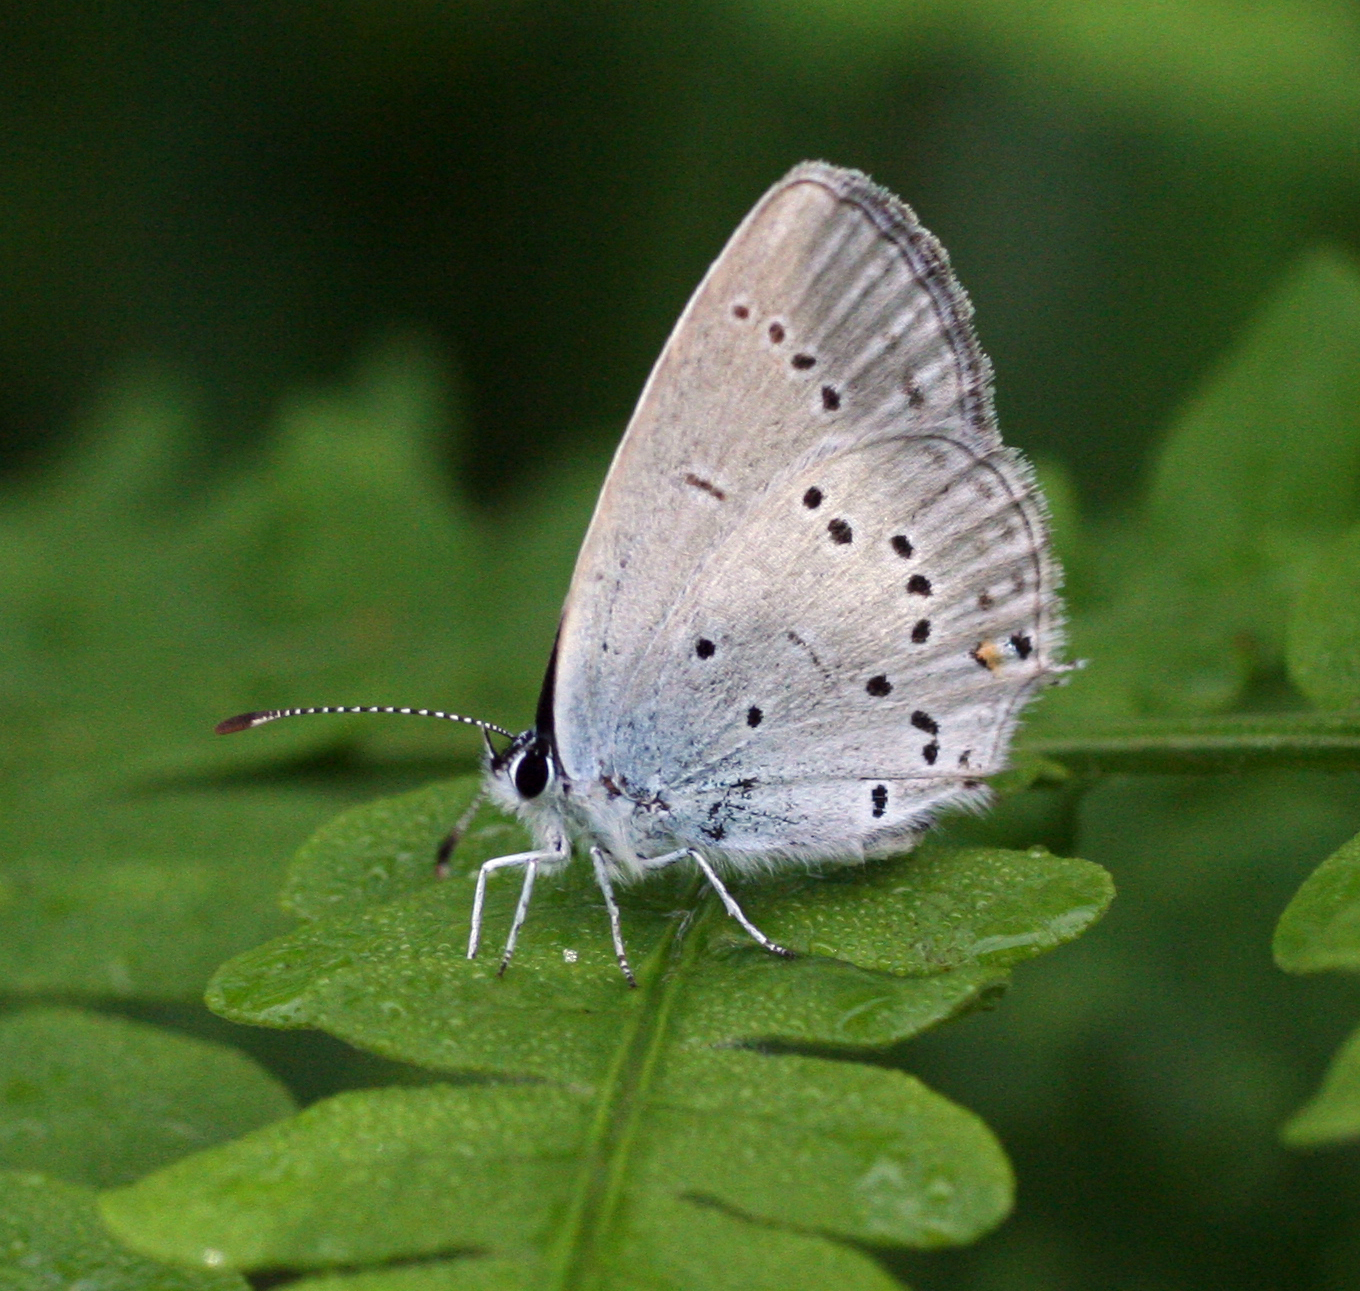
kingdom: Animalia
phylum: Arthropoda
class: Insecta
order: Lepidoptera
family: Lycaenidae
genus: Elkalyce
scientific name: Elkalyce alcetas
